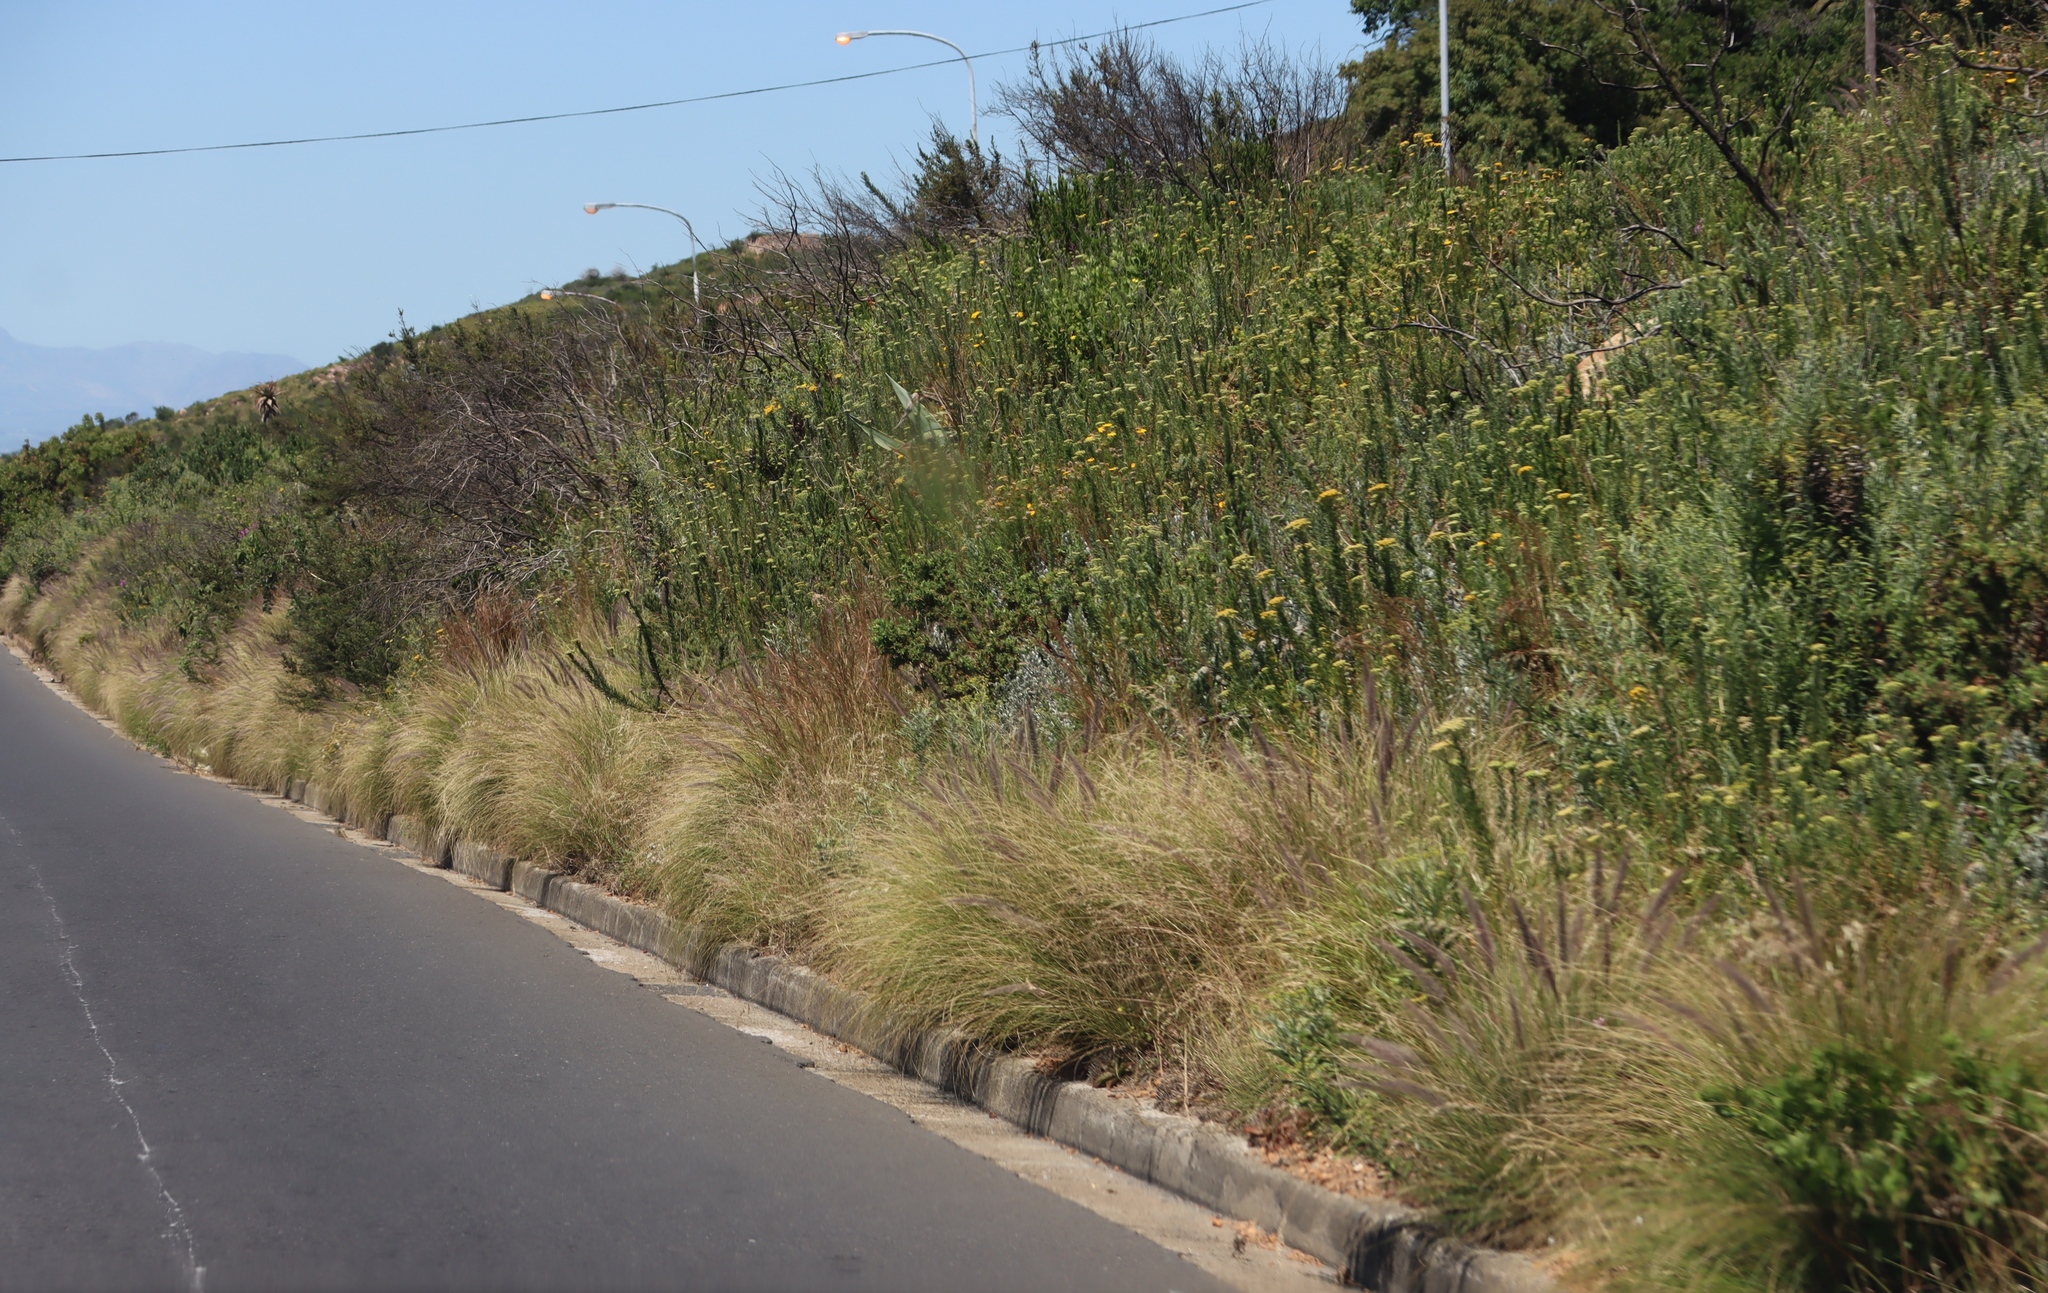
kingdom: Plantae
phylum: Tracheophyta
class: Liliopsida
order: Poales
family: Poaceae
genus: Cenchrus
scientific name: Cenchrus setaceus
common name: Crimson fountaingrass
